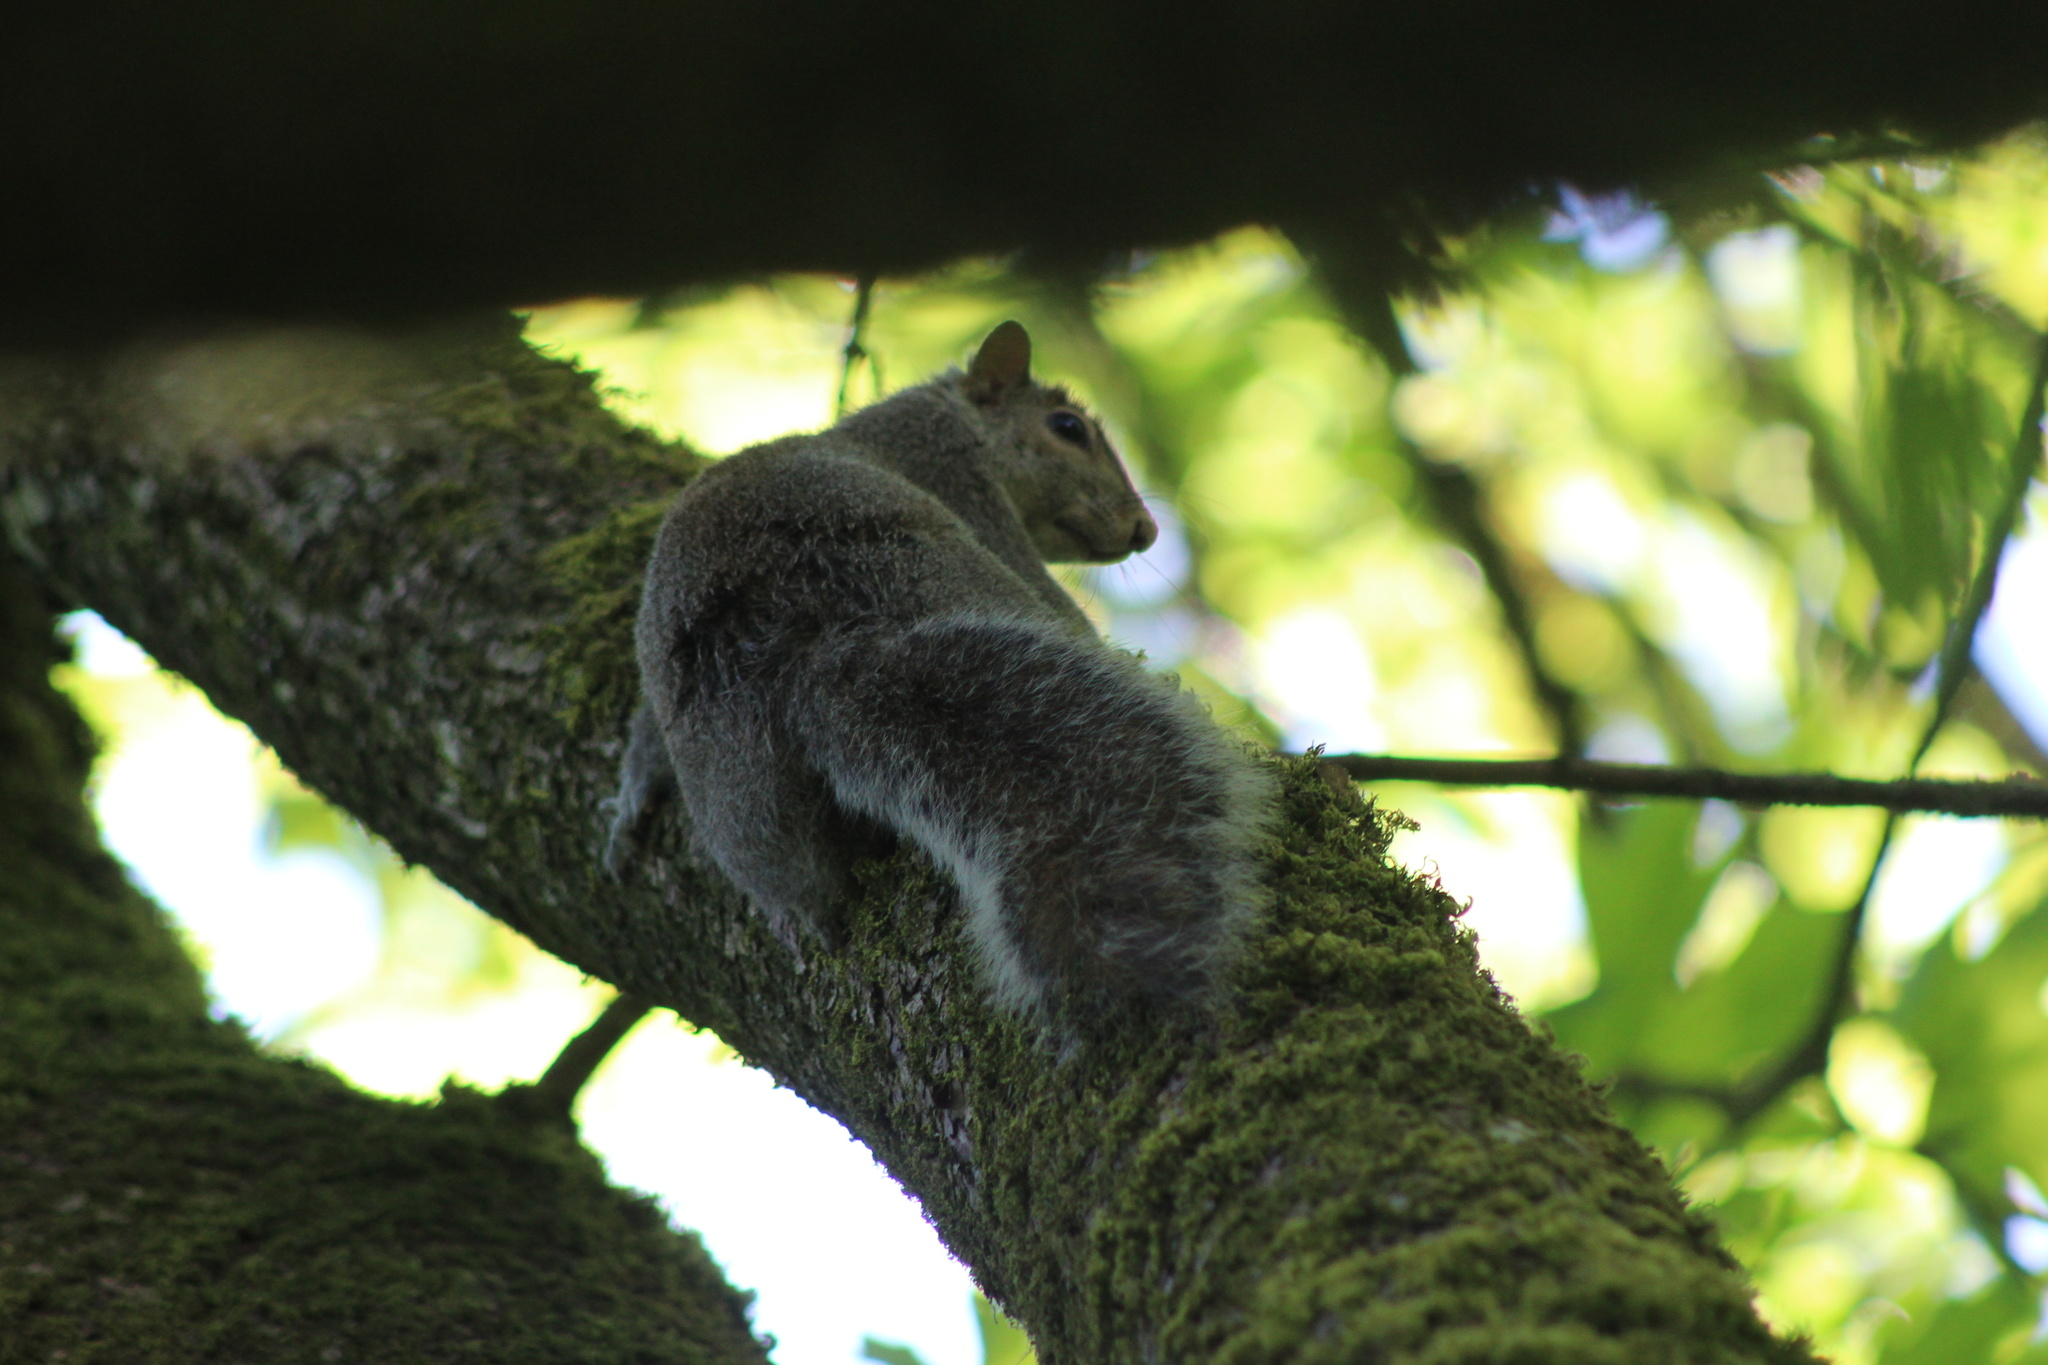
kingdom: Animalia
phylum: Chordata
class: Mammalia
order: Rodentia
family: Sciuridae
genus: Sciurus
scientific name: Sciurus carolinensis
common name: Eastern gray squirrel
